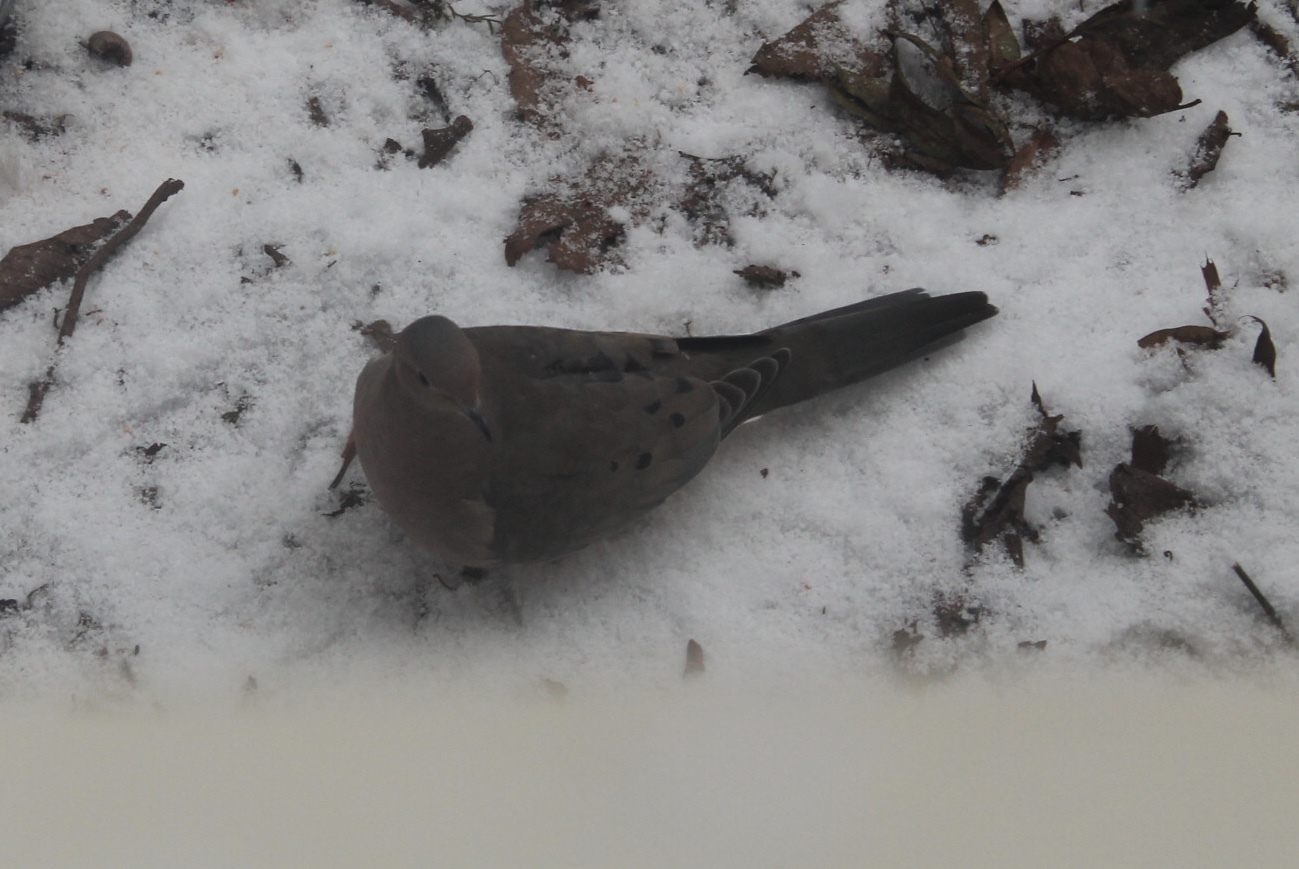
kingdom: Animalia
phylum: Chordata
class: Aves
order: Columbiformes
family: Columbidae
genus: Zenaida
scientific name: Zenaida macroura
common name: Mourning dove
